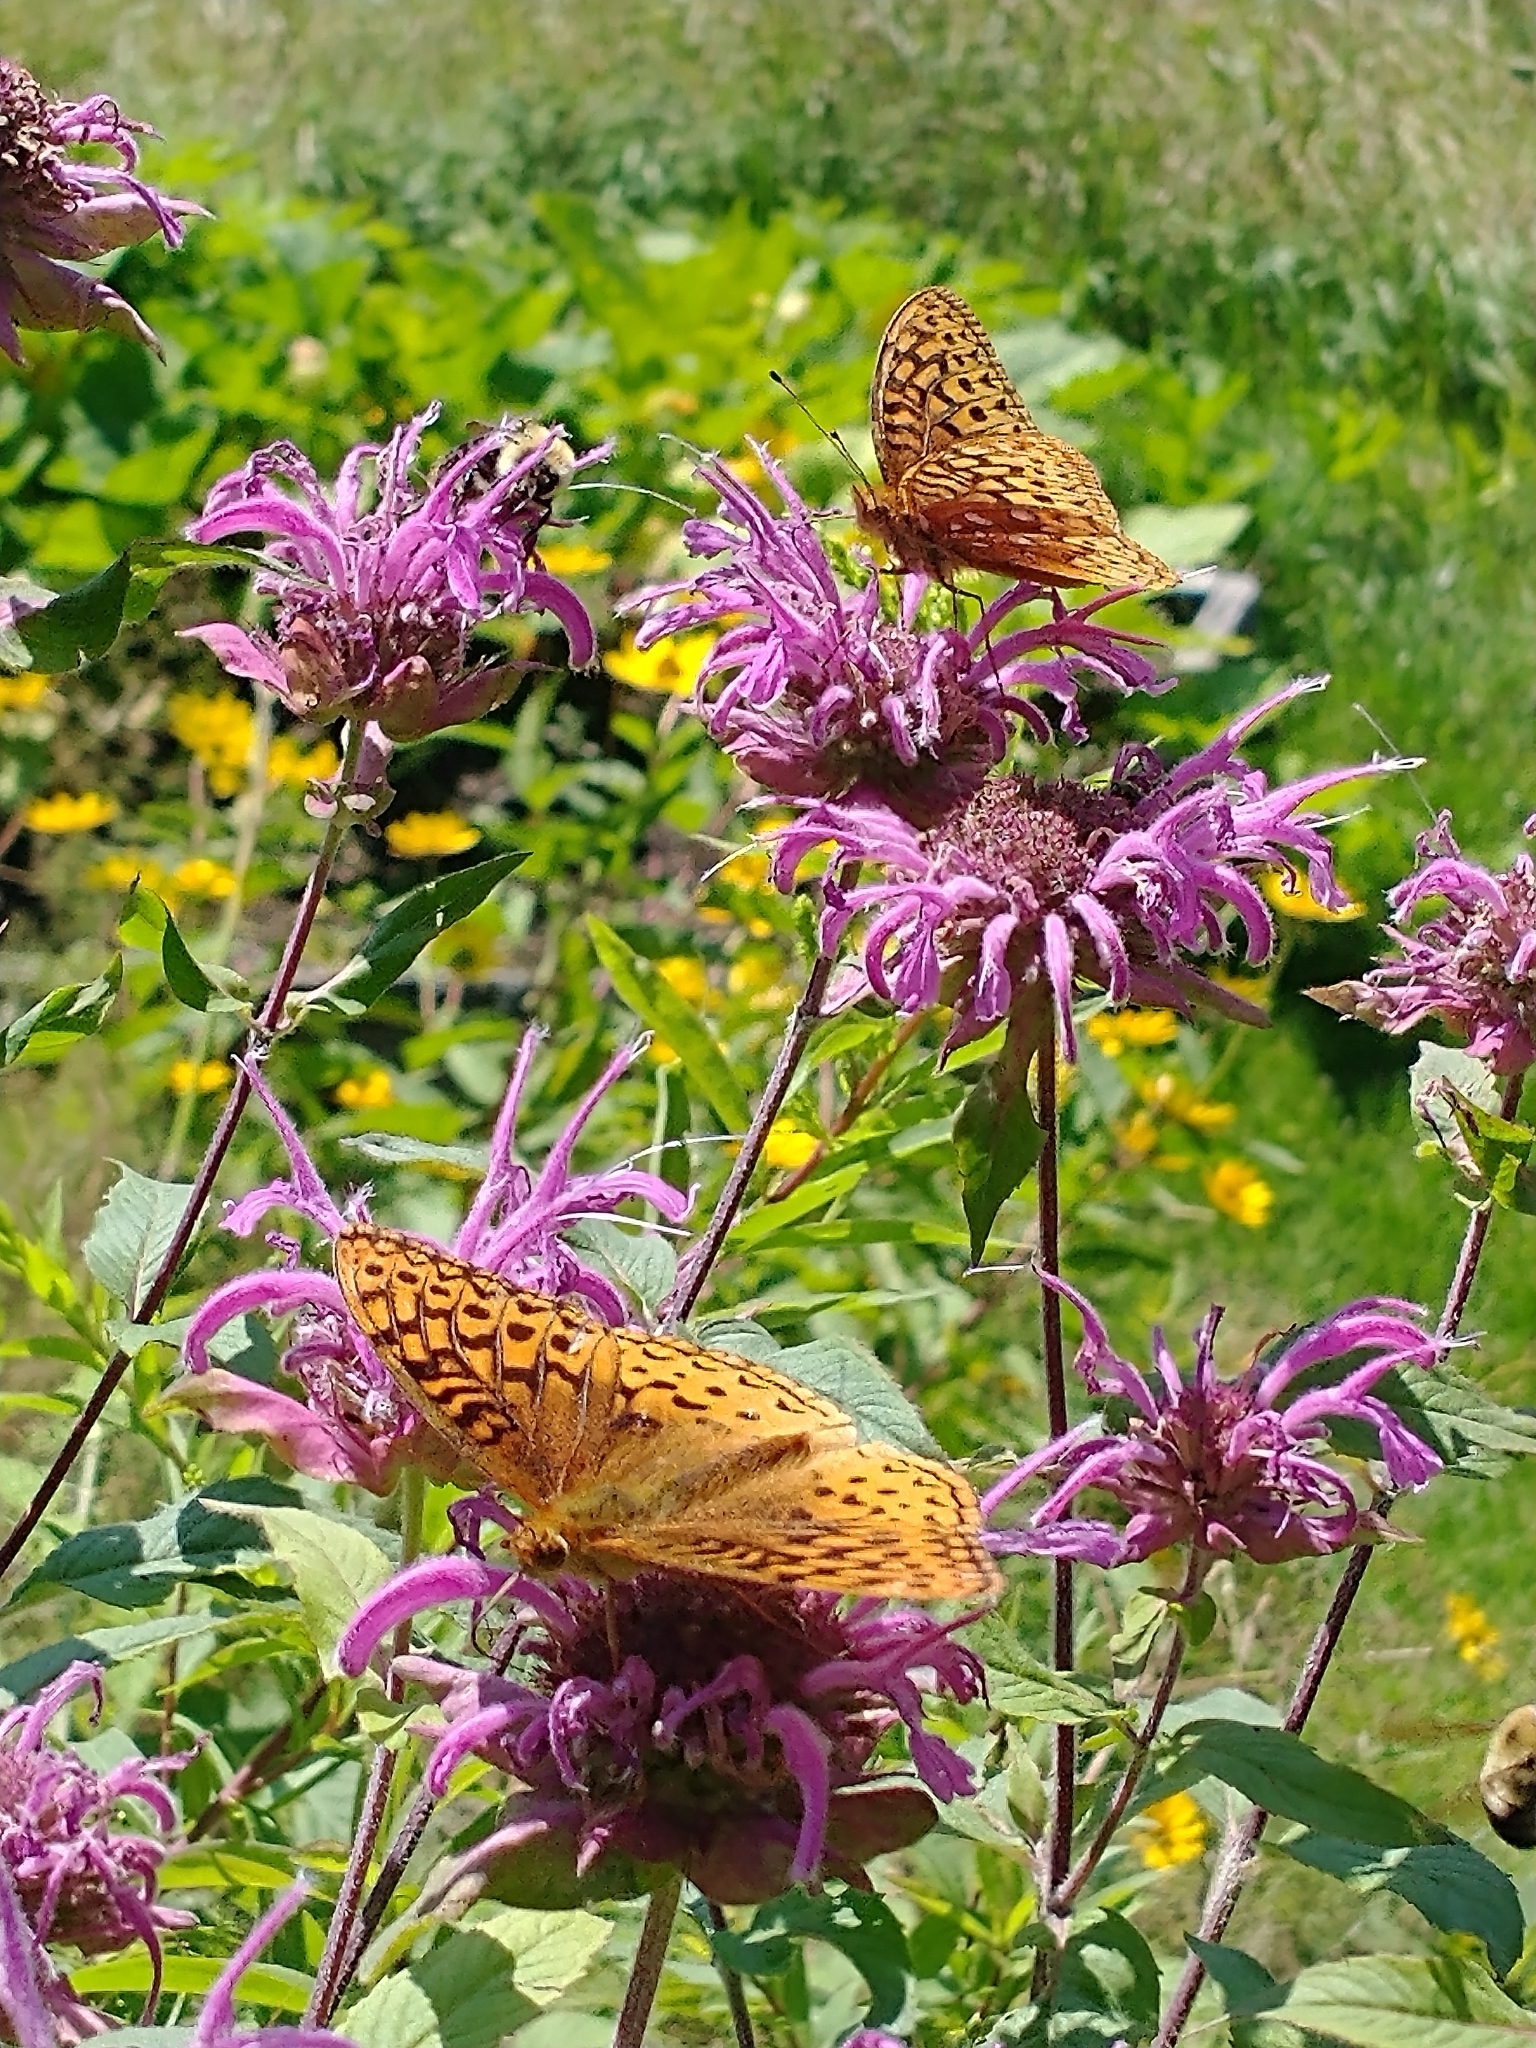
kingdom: Animalia
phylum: Arthropoda
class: Insecta
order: Lepidoptera
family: Nymphalidae
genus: Speyeria
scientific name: Speyeria cybele
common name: Great spangled fritillary
